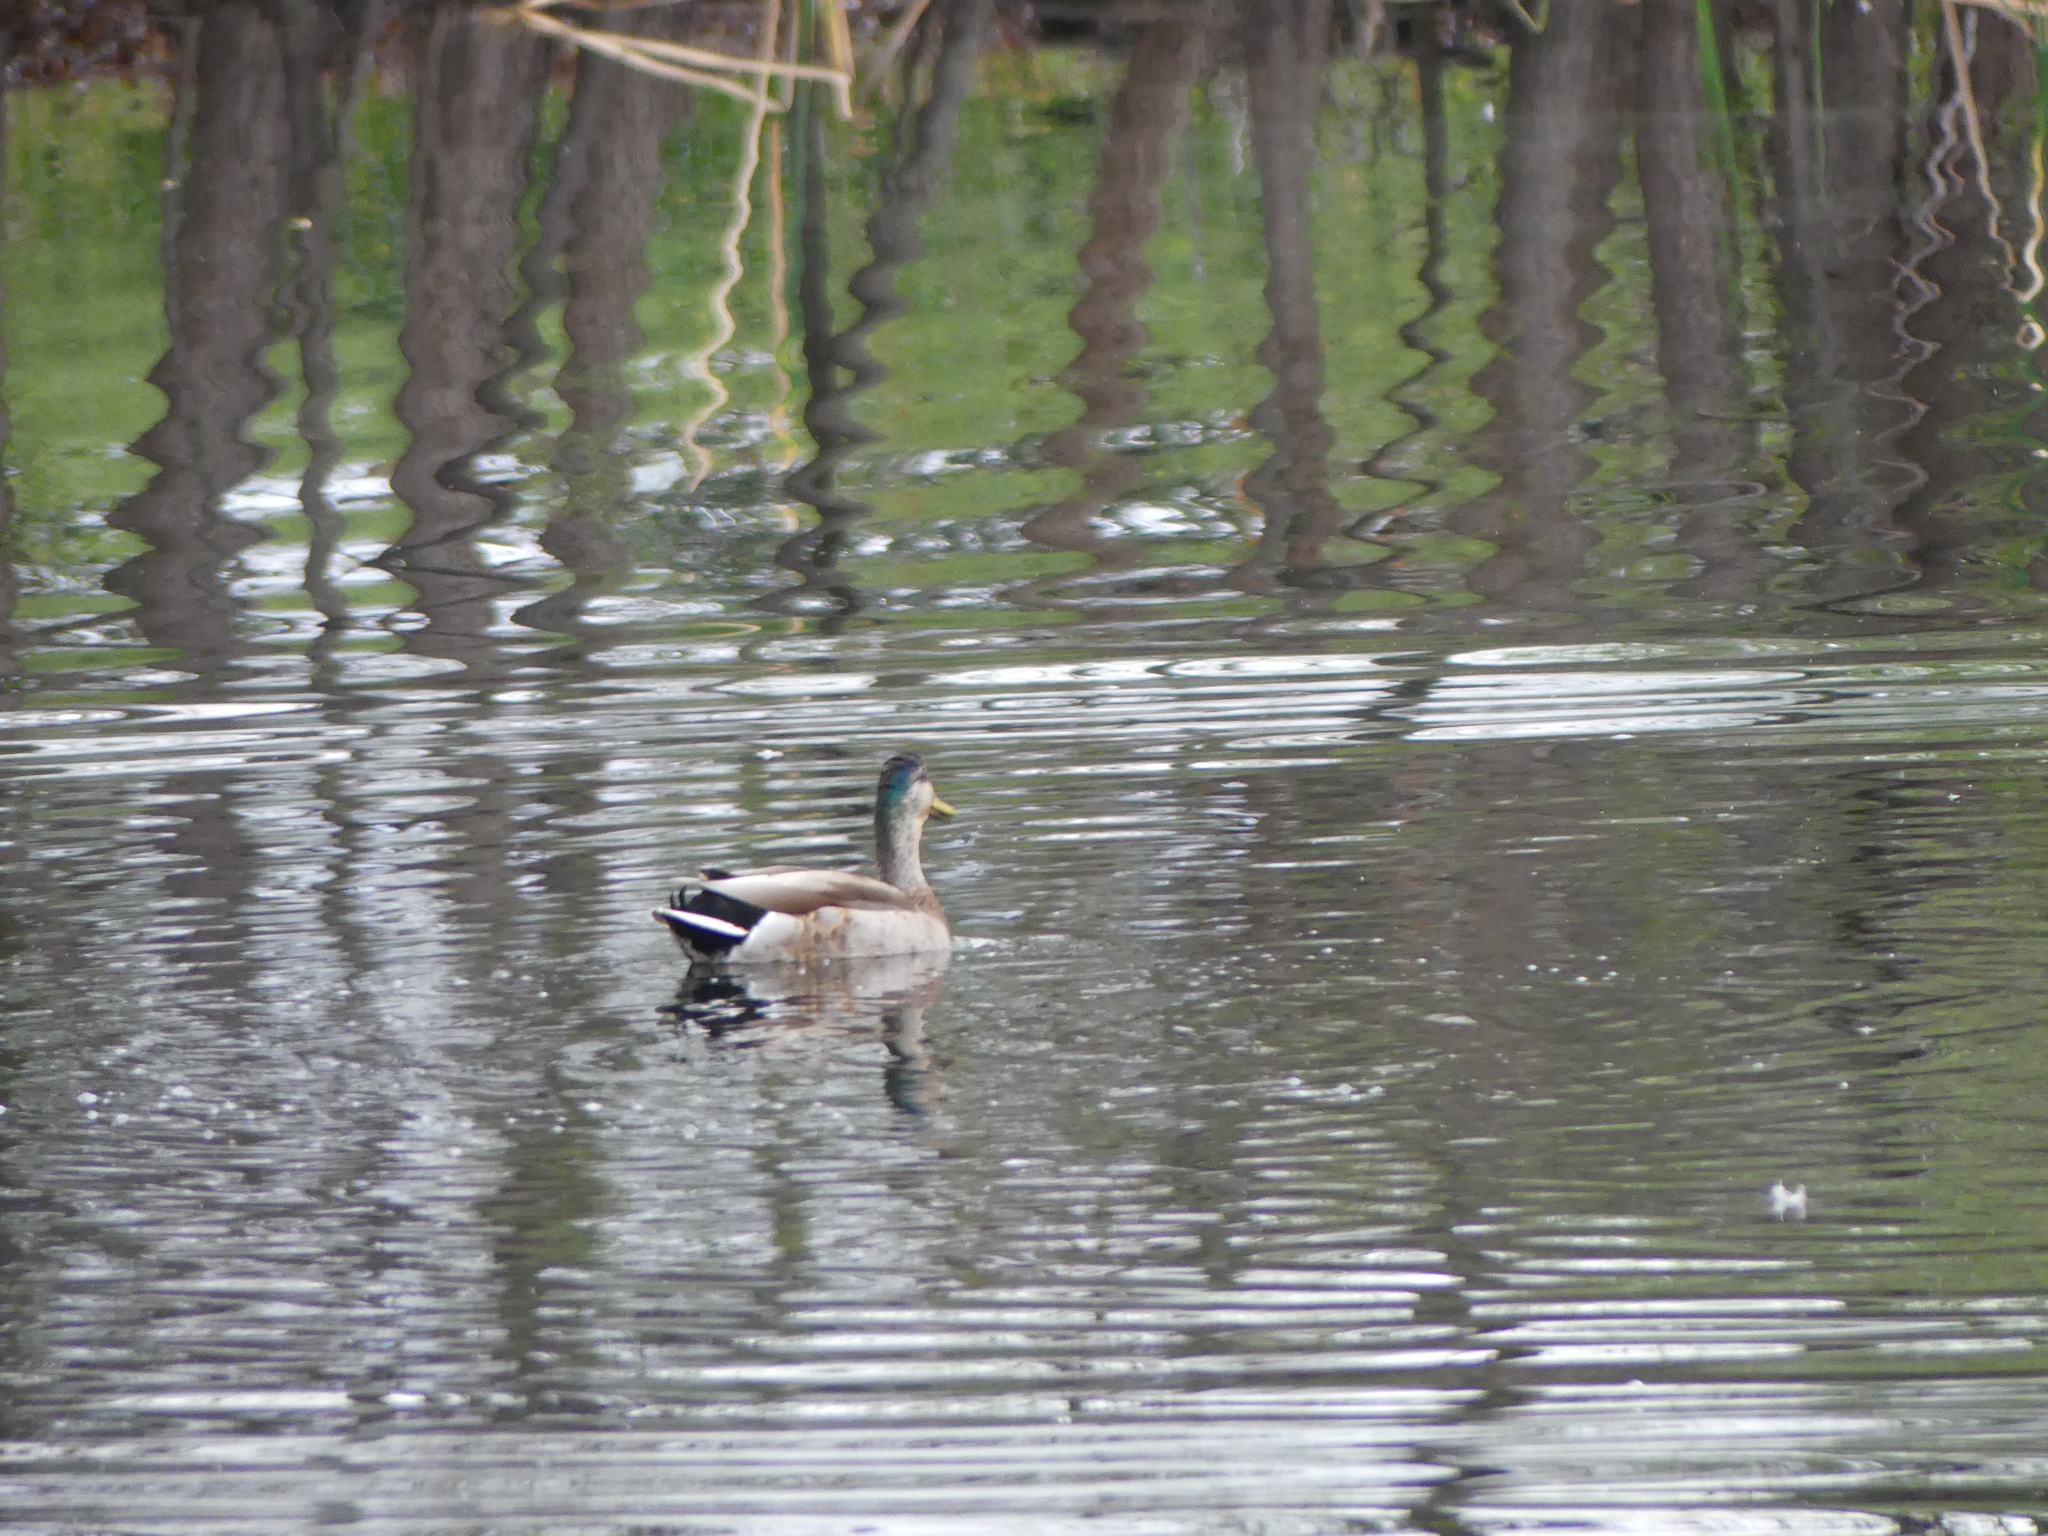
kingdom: Animalia
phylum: Chordata
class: Aves
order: Anseriformes
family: Anatidae
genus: Anas
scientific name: Anas platyrhynchos
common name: Mallard
